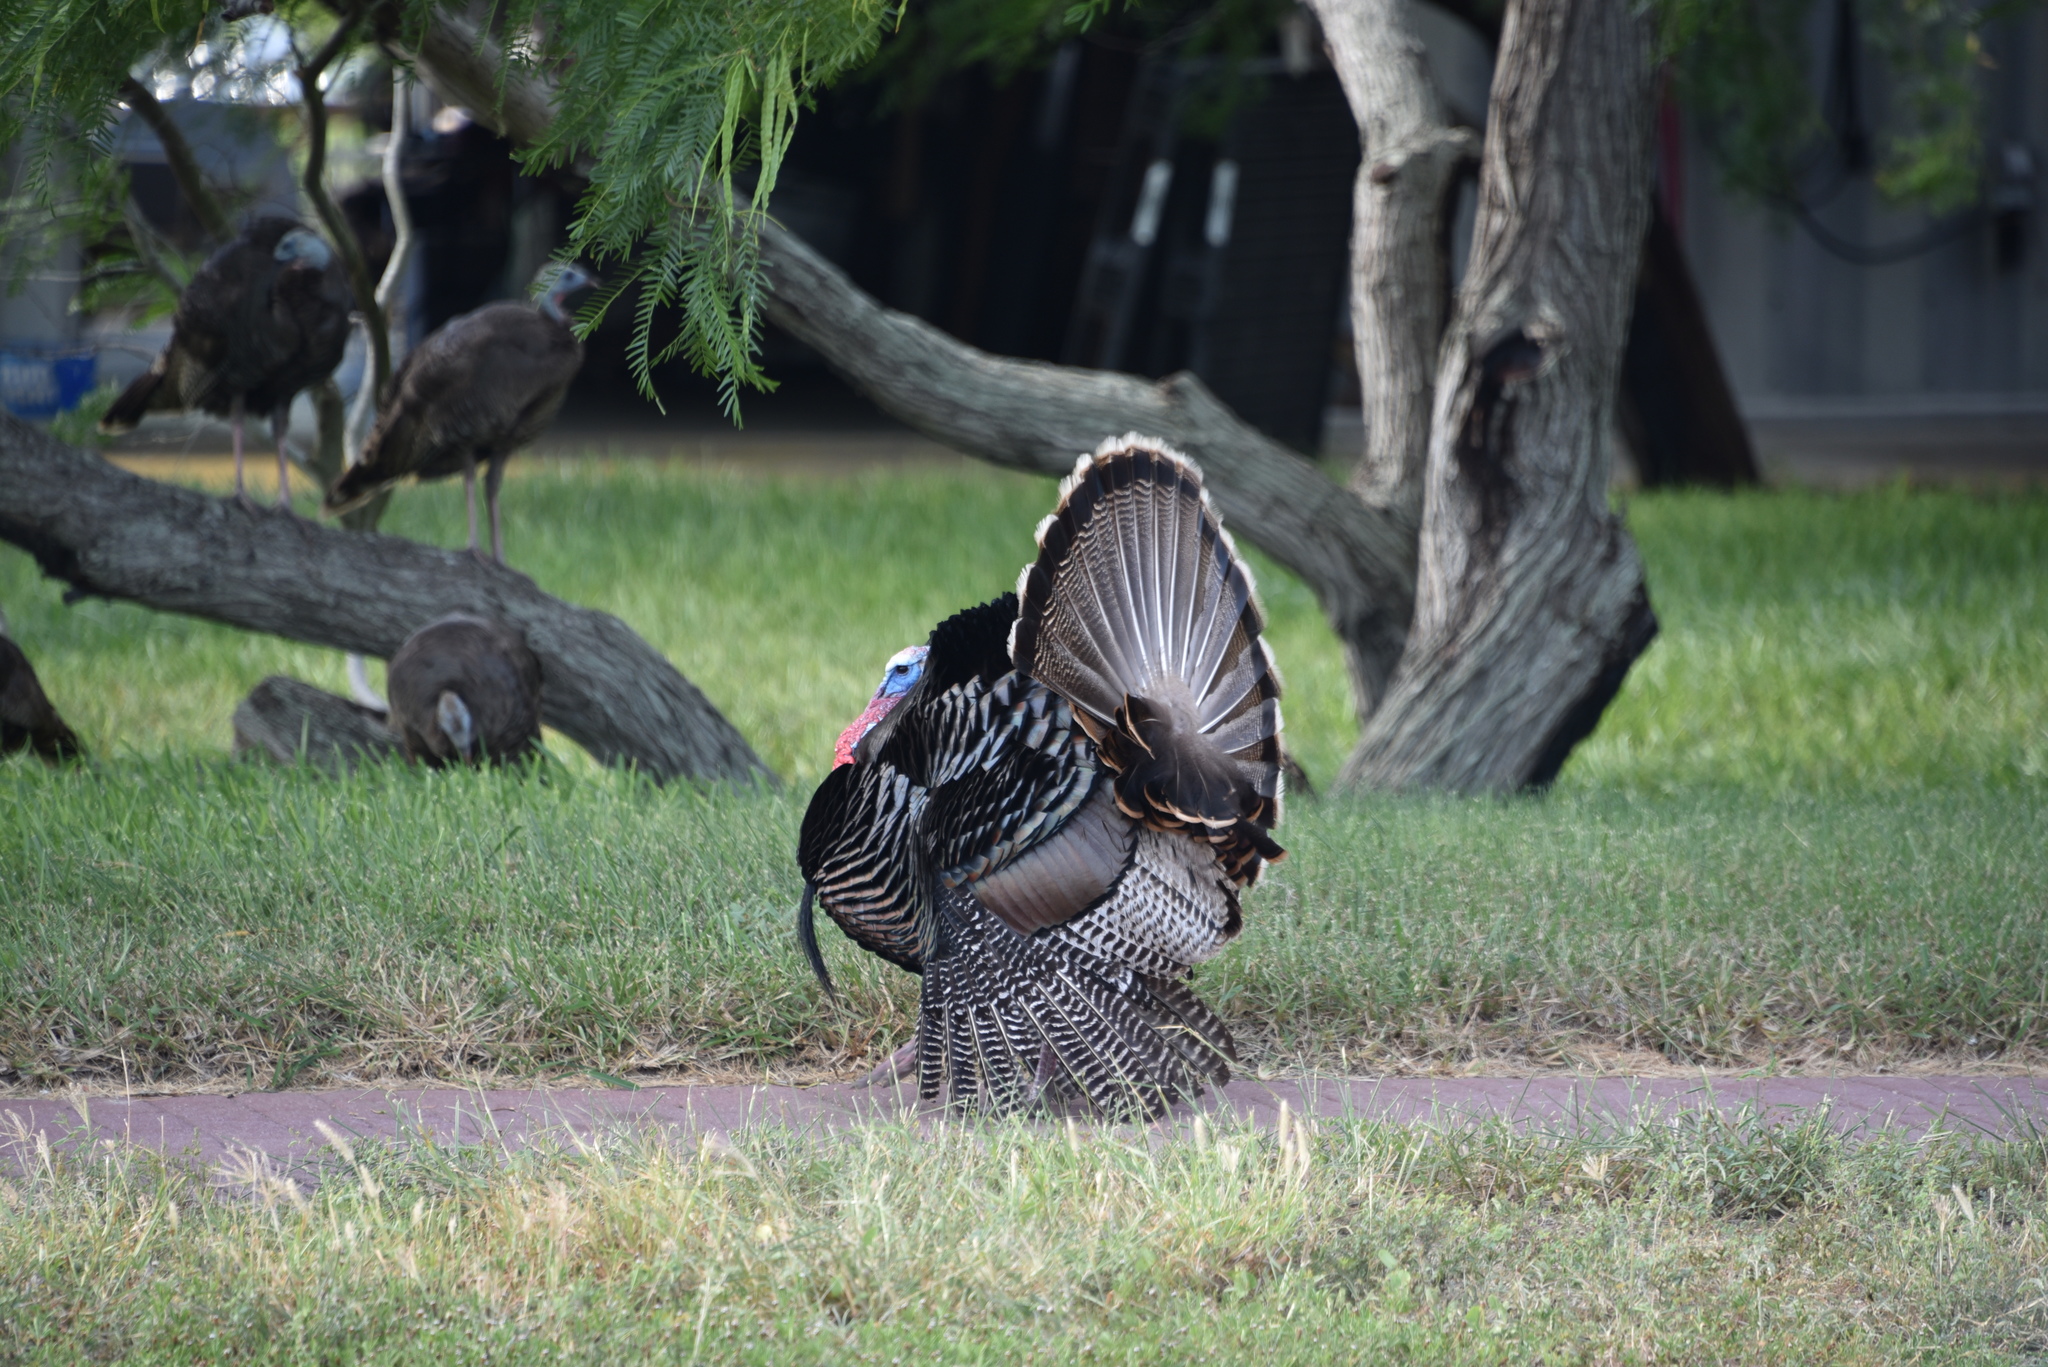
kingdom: Animalia
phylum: Chordata
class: Aves
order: Galliformes
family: Phasianidae
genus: Meleagris
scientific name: Meleagris gallopavo
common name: Wild turkey
